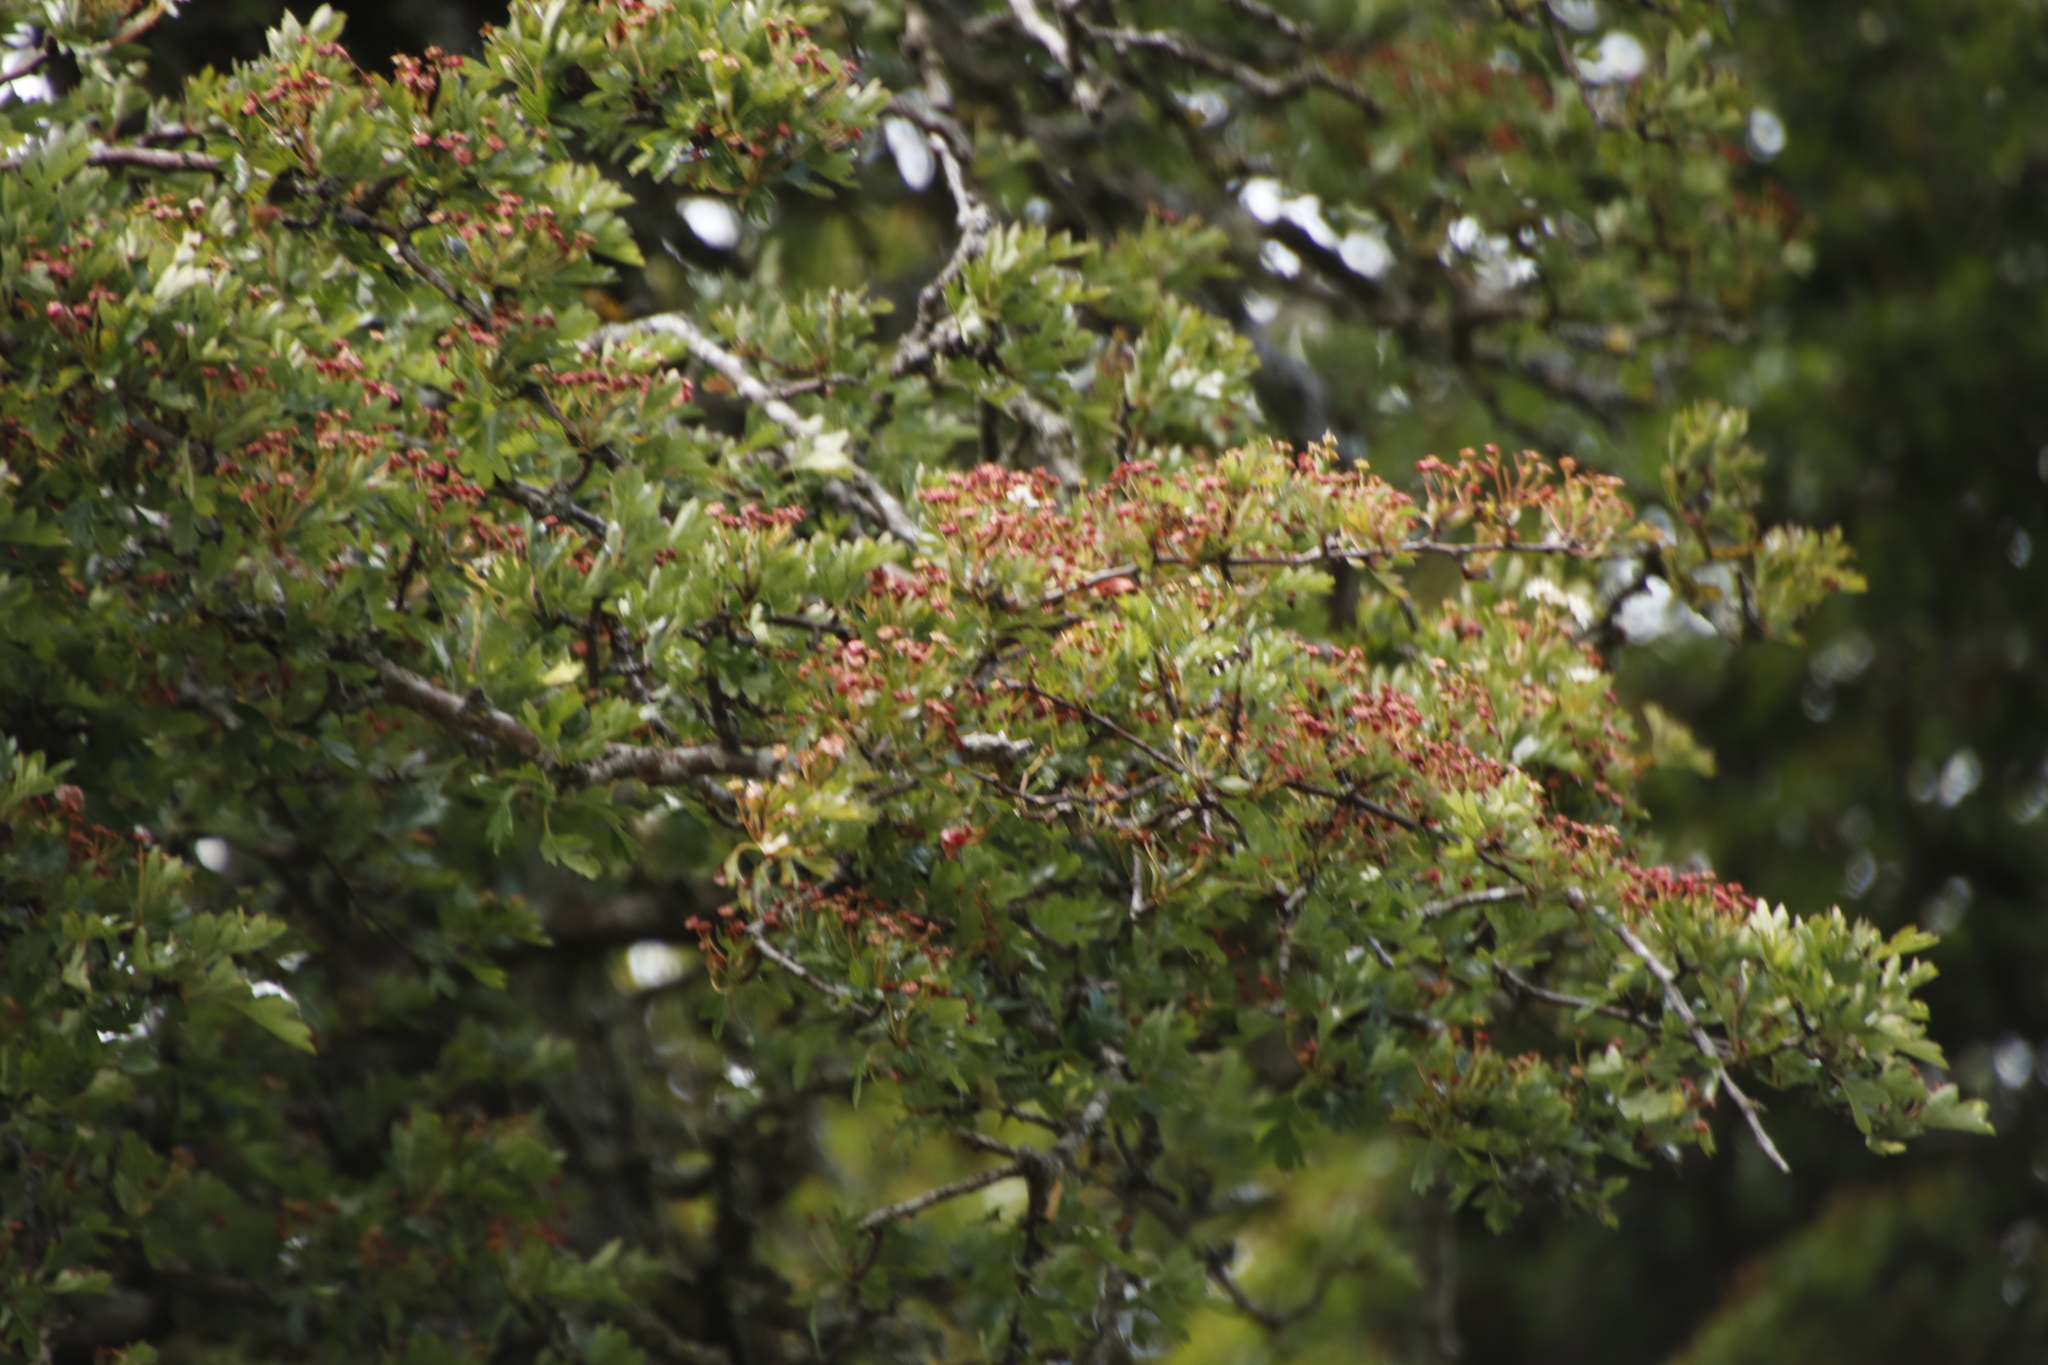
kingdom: Plantae
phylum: Tracheophyta
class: Magnoliopsida
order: Rosales
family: Rosaceae
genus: Crataegus
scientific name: Crataegus monogyna
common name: Hawthorn
